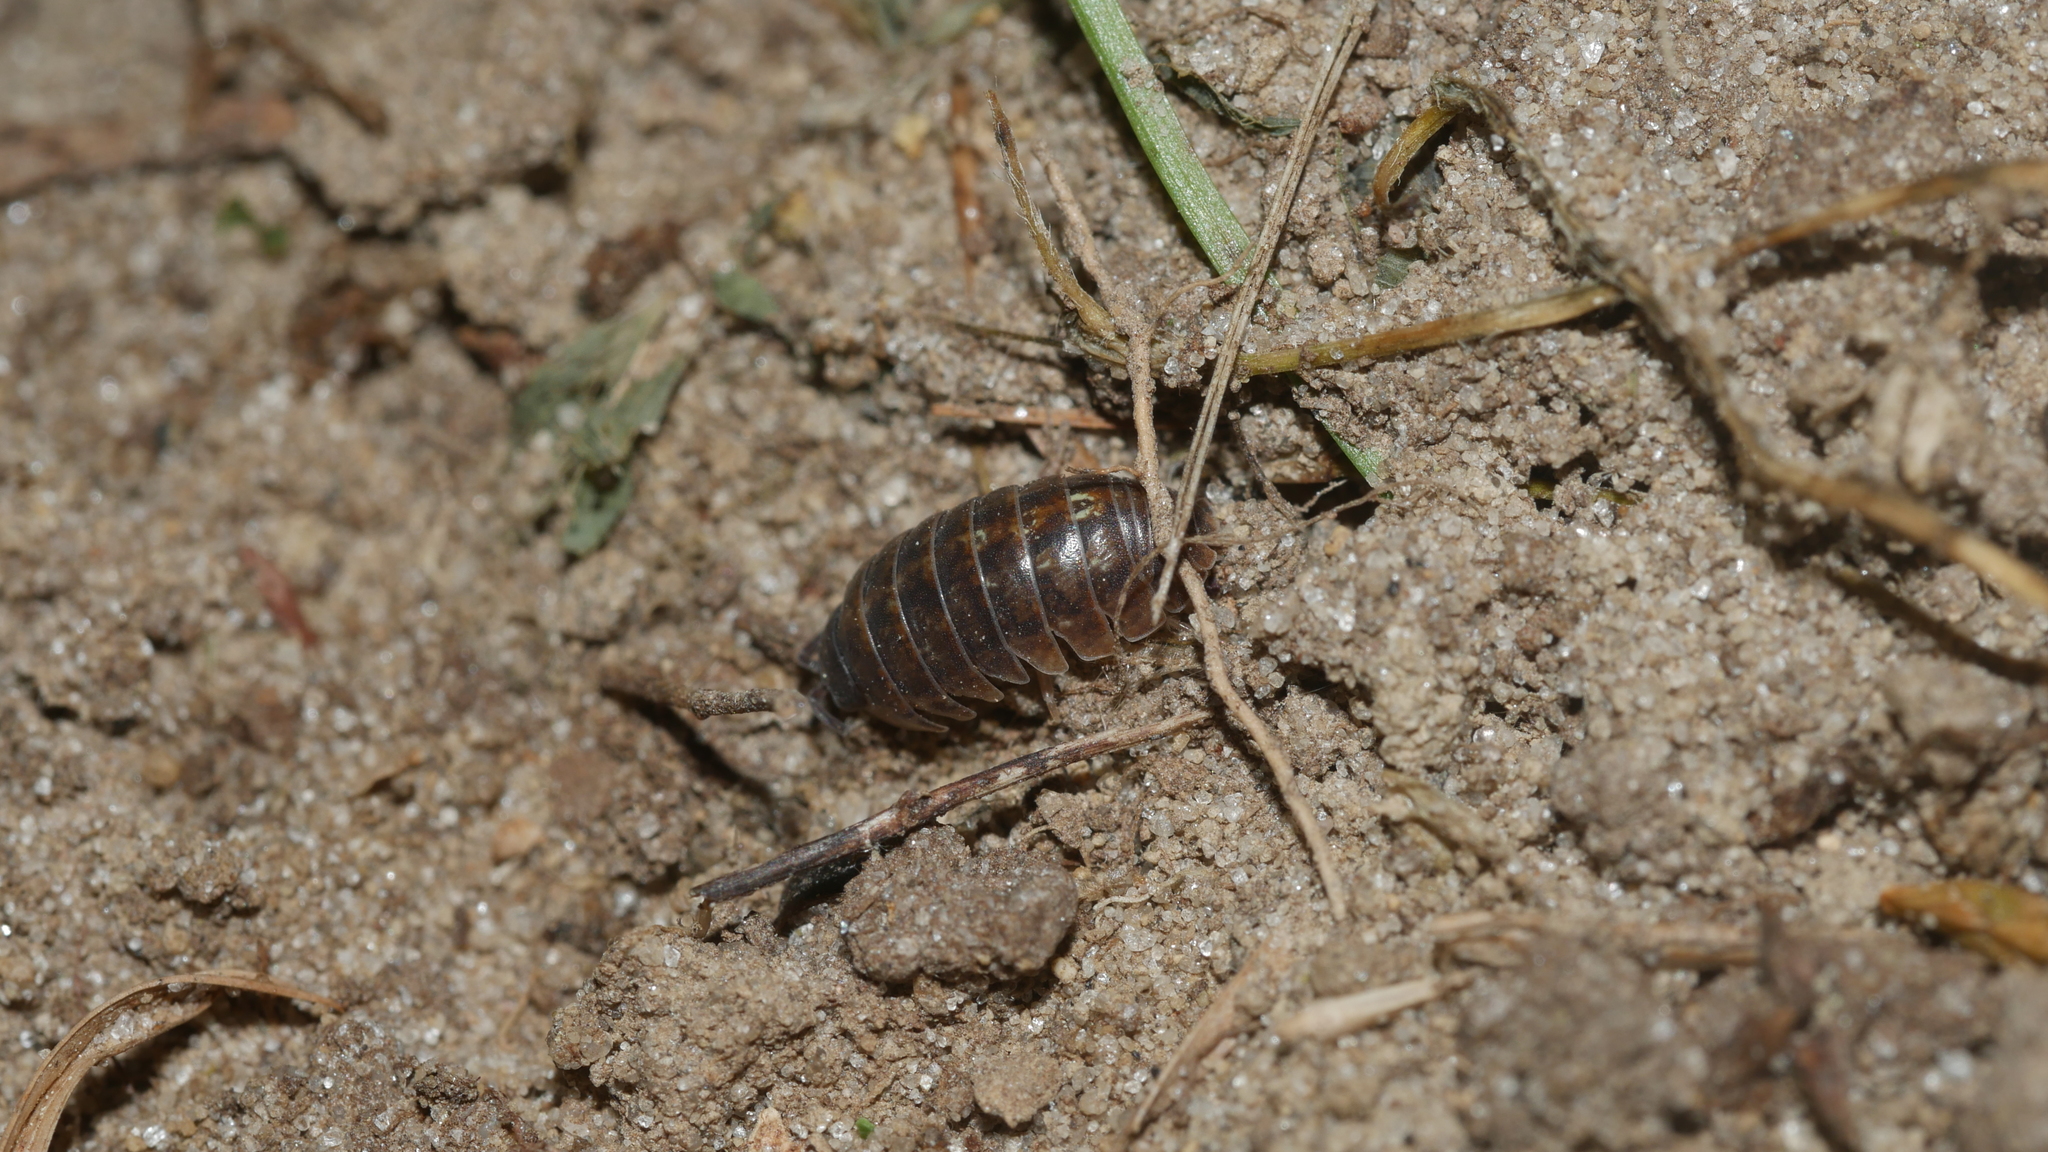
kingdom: Animalia
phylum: Arthropoda
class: Malacostraca
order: Isopoda
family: Armadillidiidae
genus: Armadillidium
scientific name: Armadillidium vulgare
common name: Common pill woodlouse
